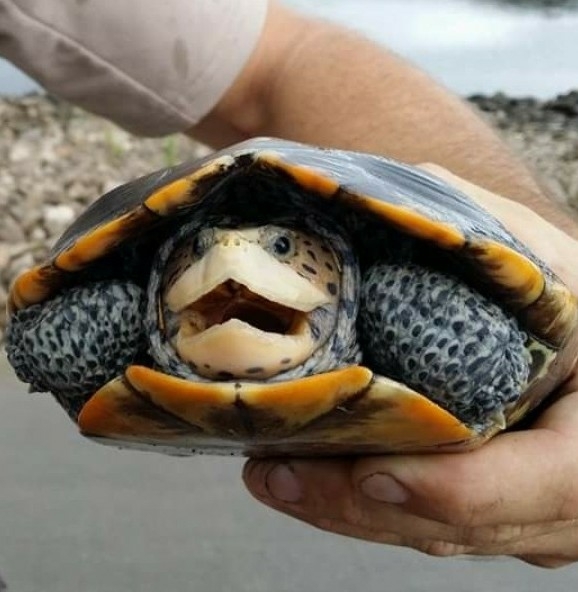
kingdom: Animalia
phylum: Chordata
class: Testudines
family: Emydidae
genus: Malaclemys
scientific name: Malaclemys terrapin
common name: Diamondback terrapin
